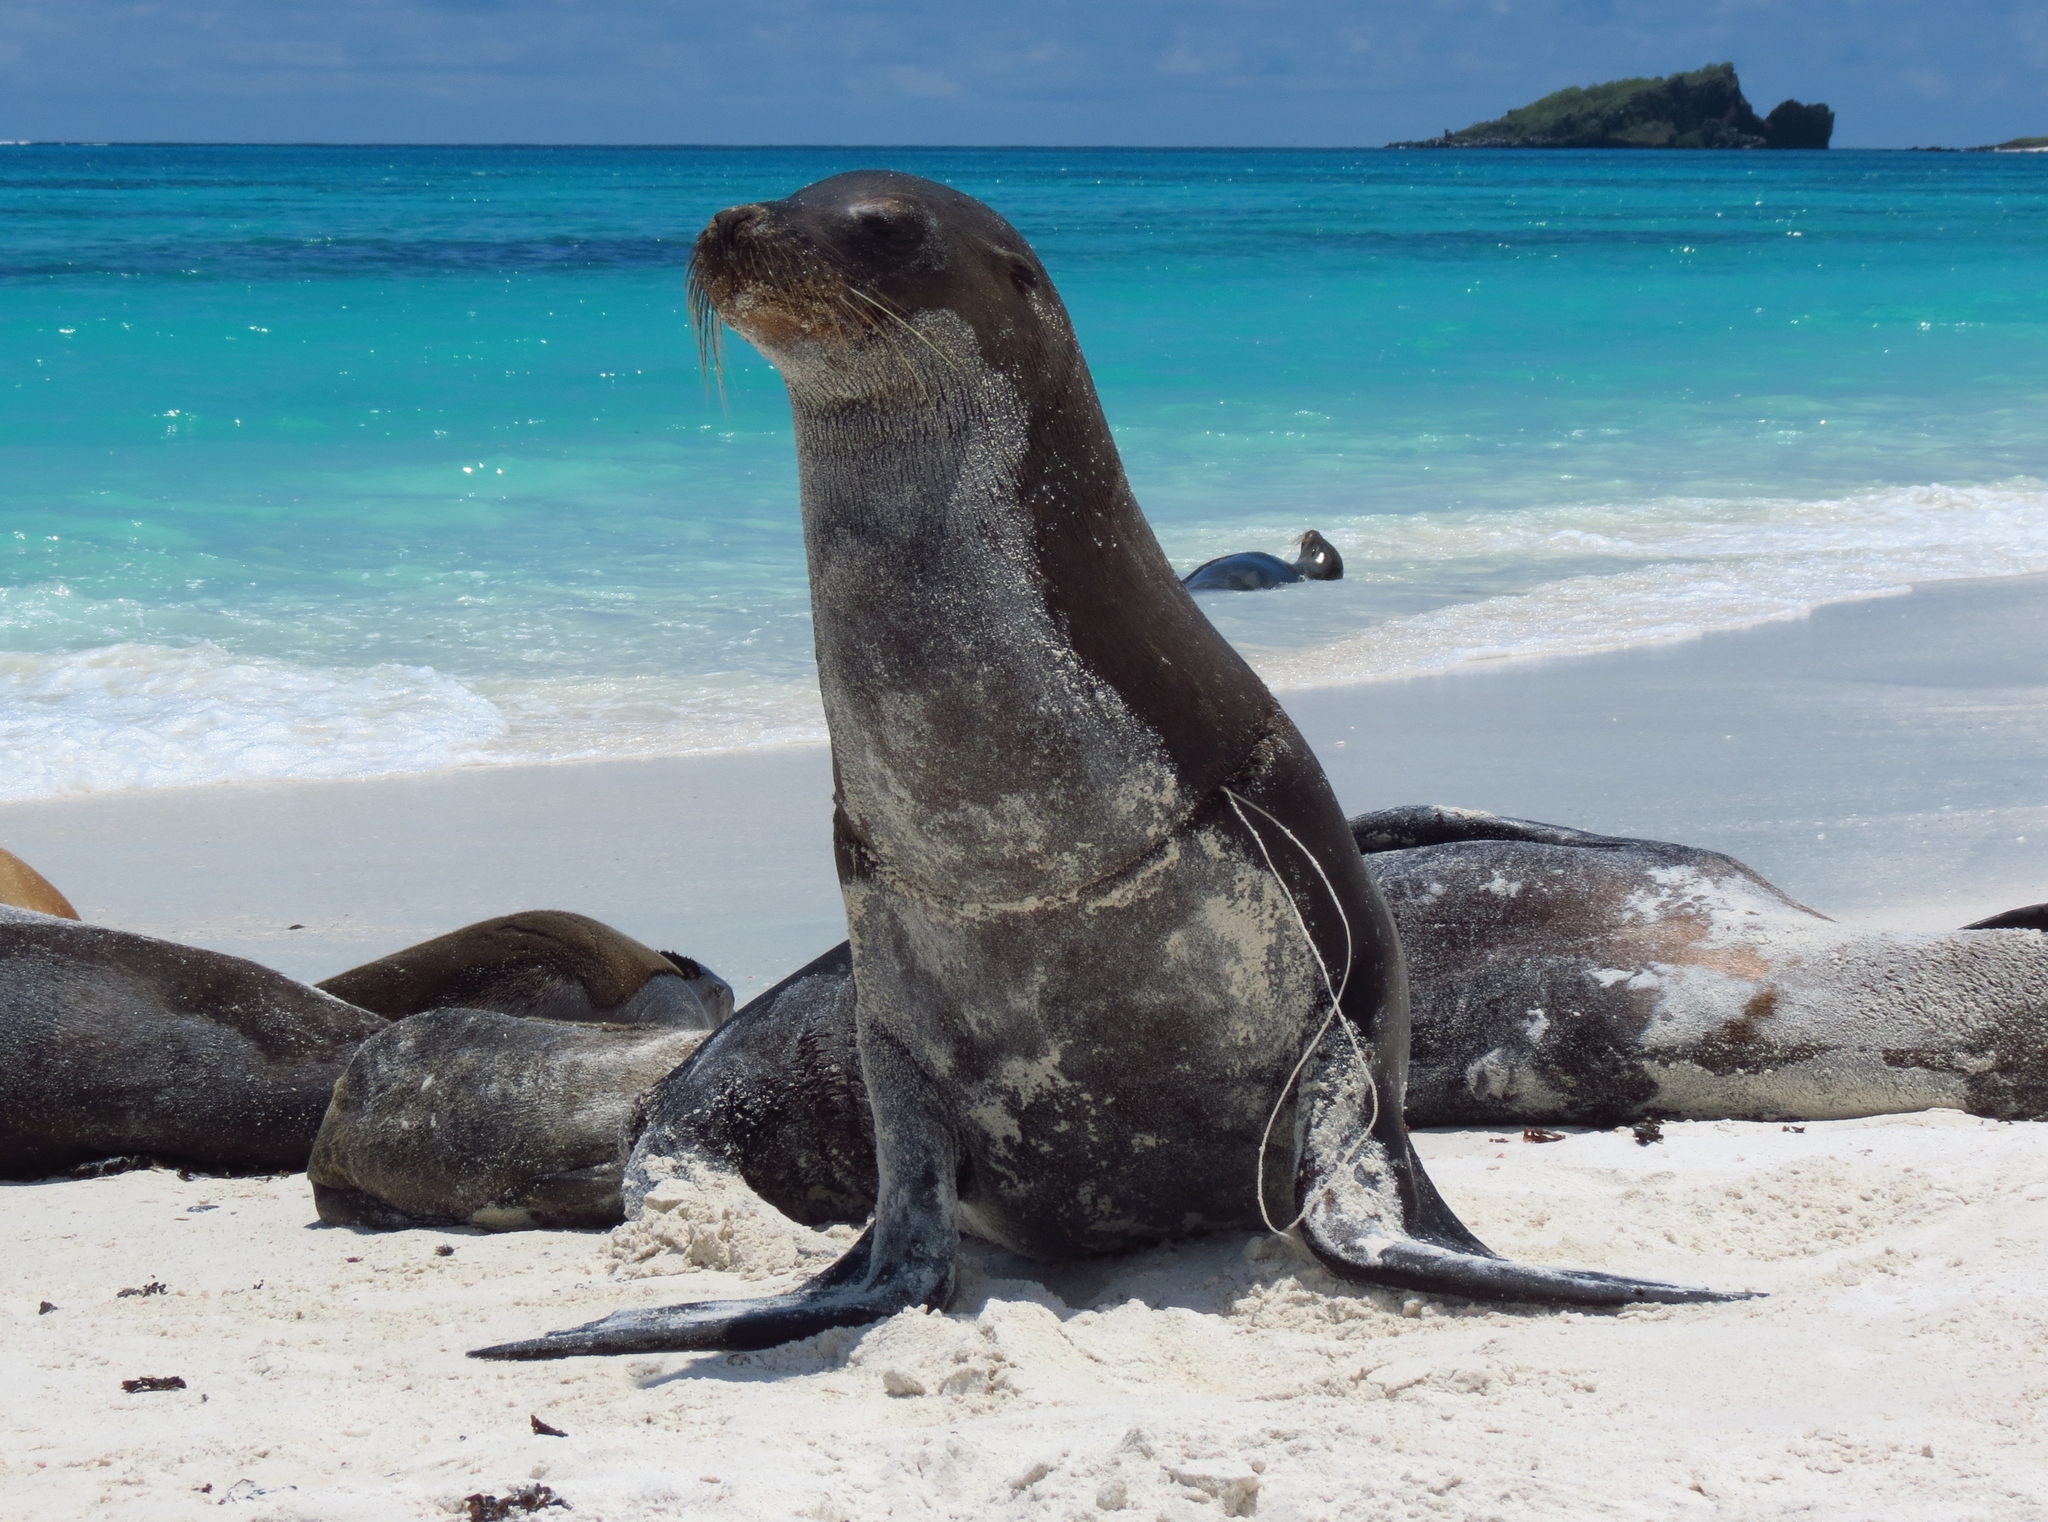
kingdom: Animalia
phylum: Chordata
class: Mammalia
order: Carnivora
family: Otariidae
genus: Zalophus
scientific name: Zalophus wollebaeki
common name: Galapagos sea lion
